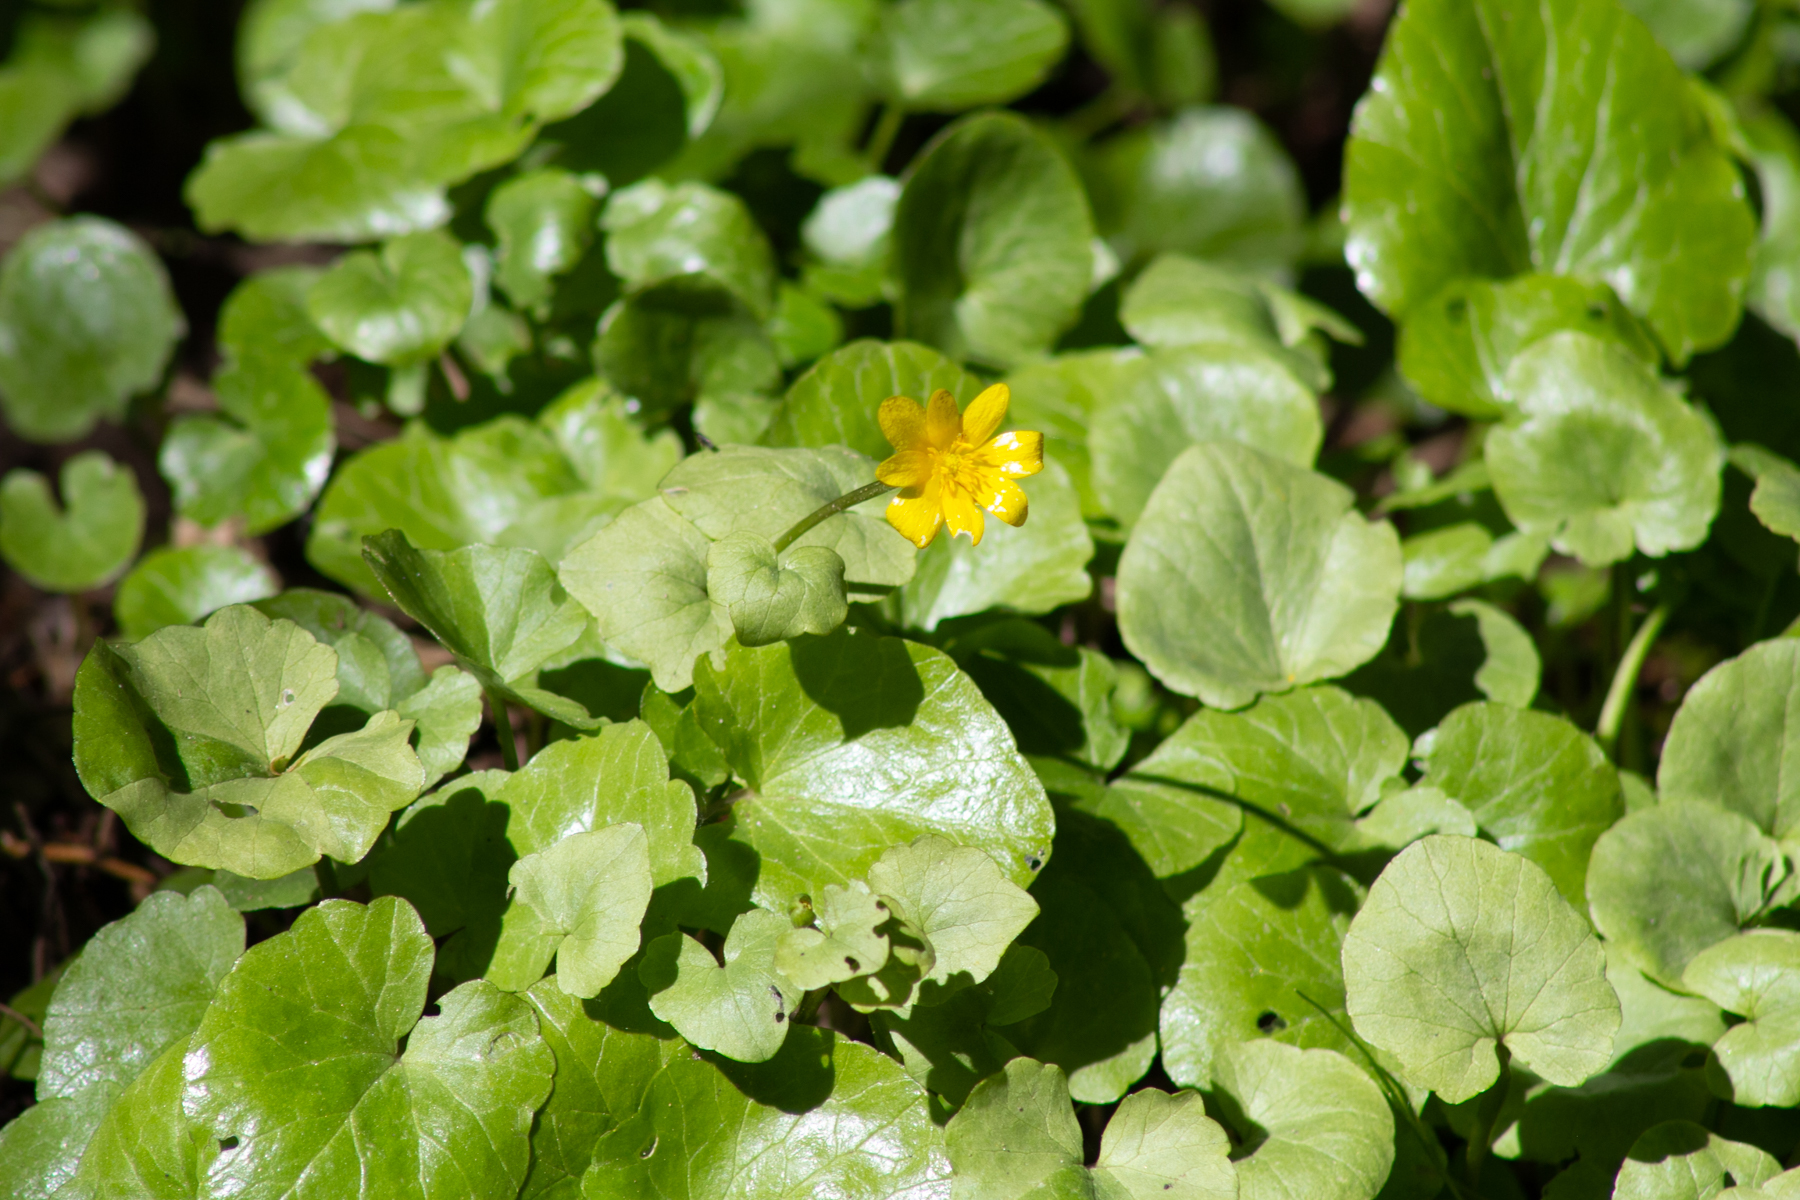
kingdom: Plantae
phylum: Tracheophyta
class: Magnoliopsida
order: Ranunculales
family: Ranunculaceae
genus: Ficaria
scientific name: Ficaria verna
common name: Lesser celandine
